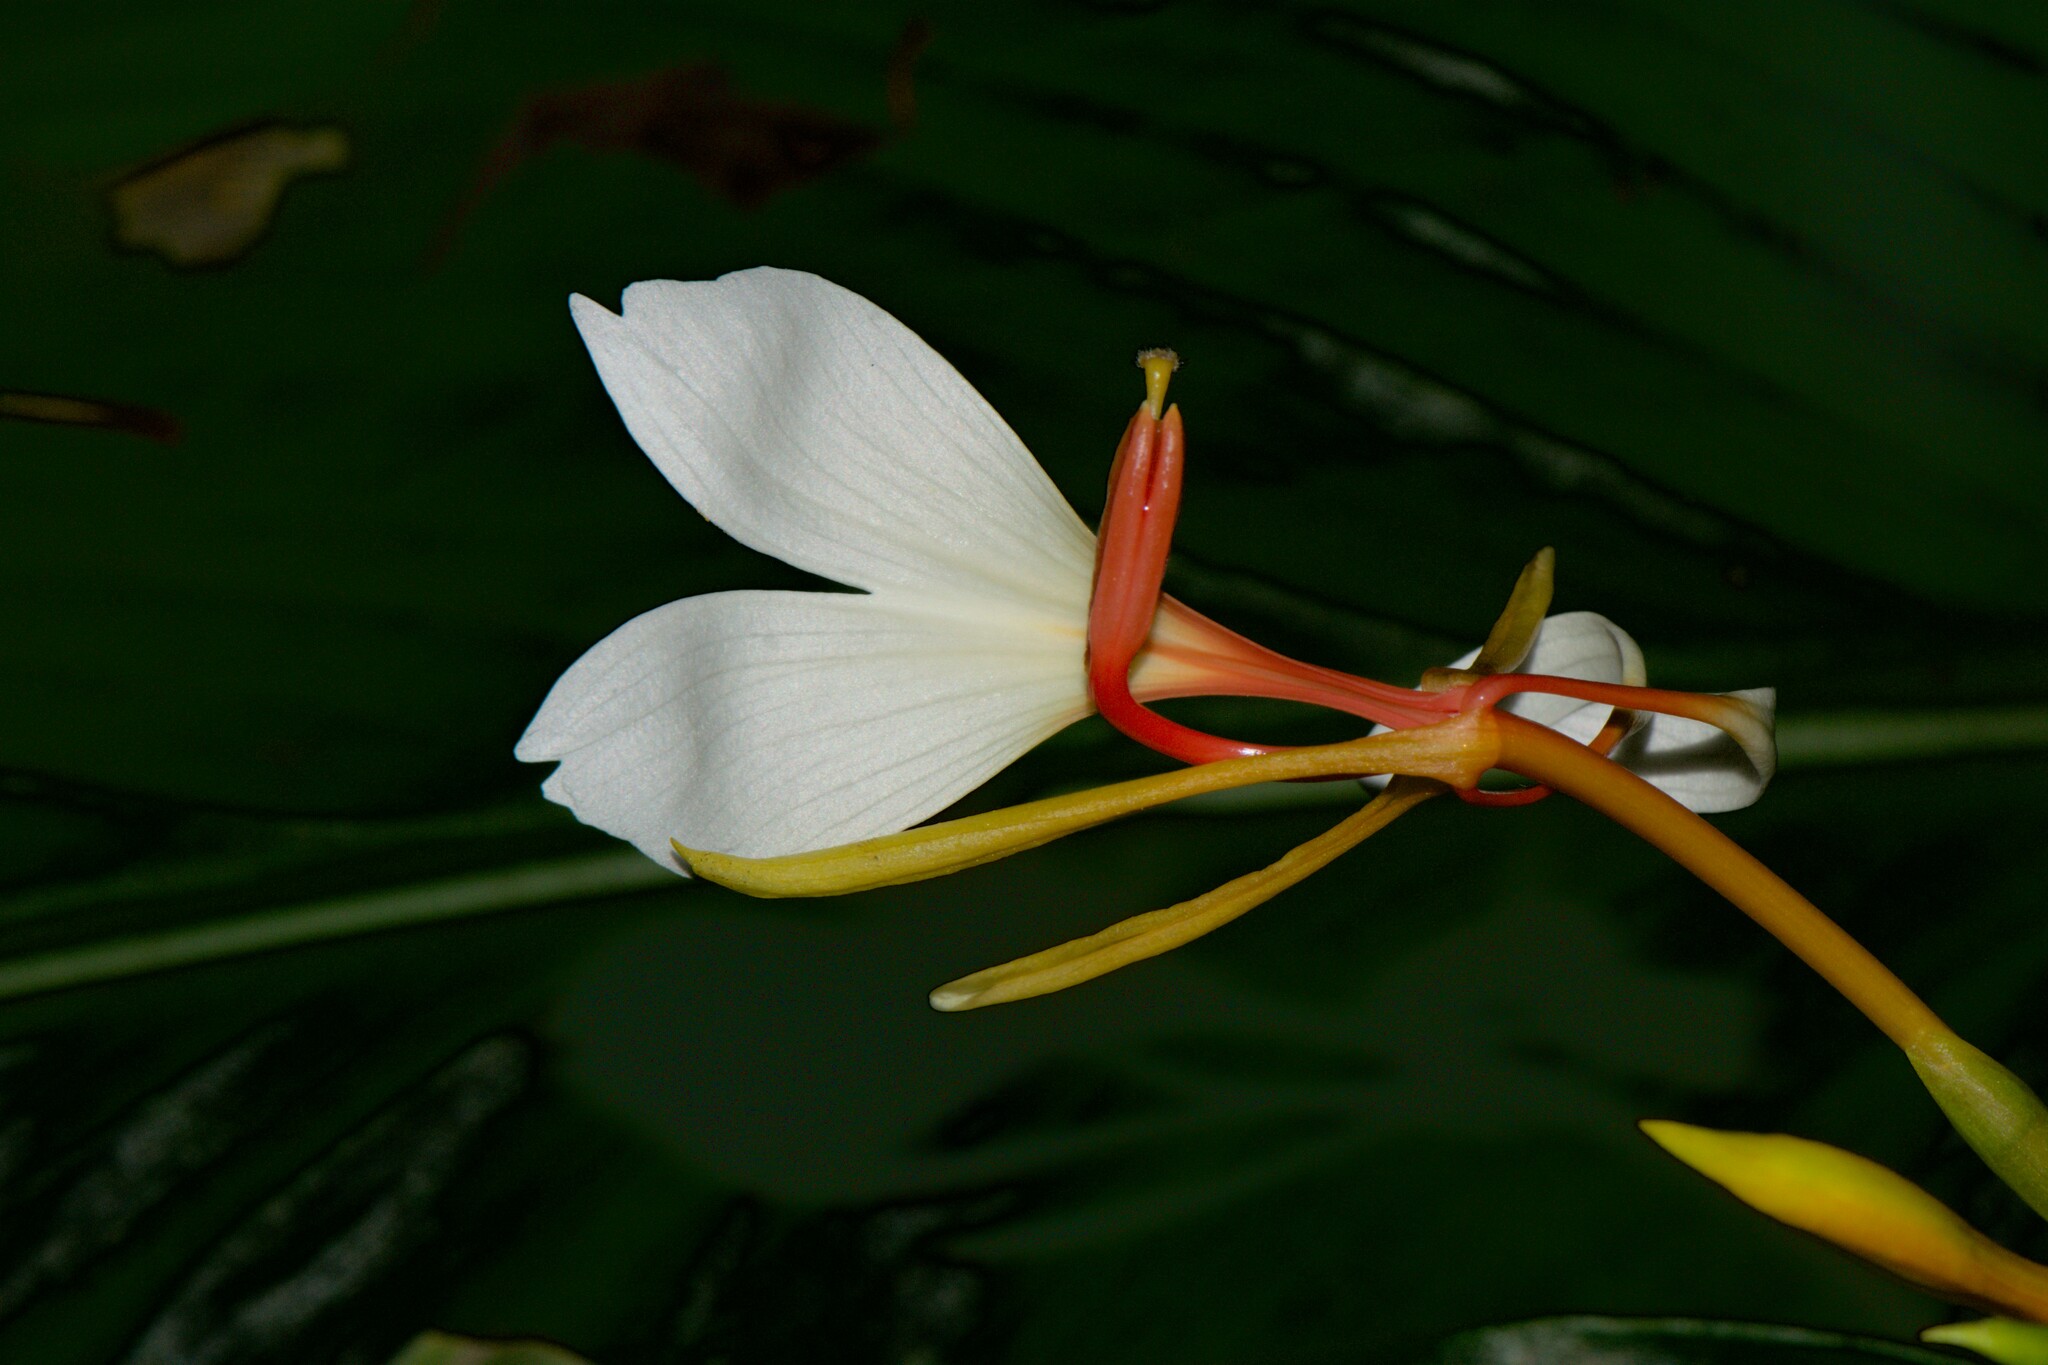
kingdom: Plantae
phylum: Tracheophyta
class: Liliopsida
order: Zingiberales
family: Zingiberaceae
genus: Hedychium
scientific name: Hedychium spicatum
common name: Spiked ginger-lily
